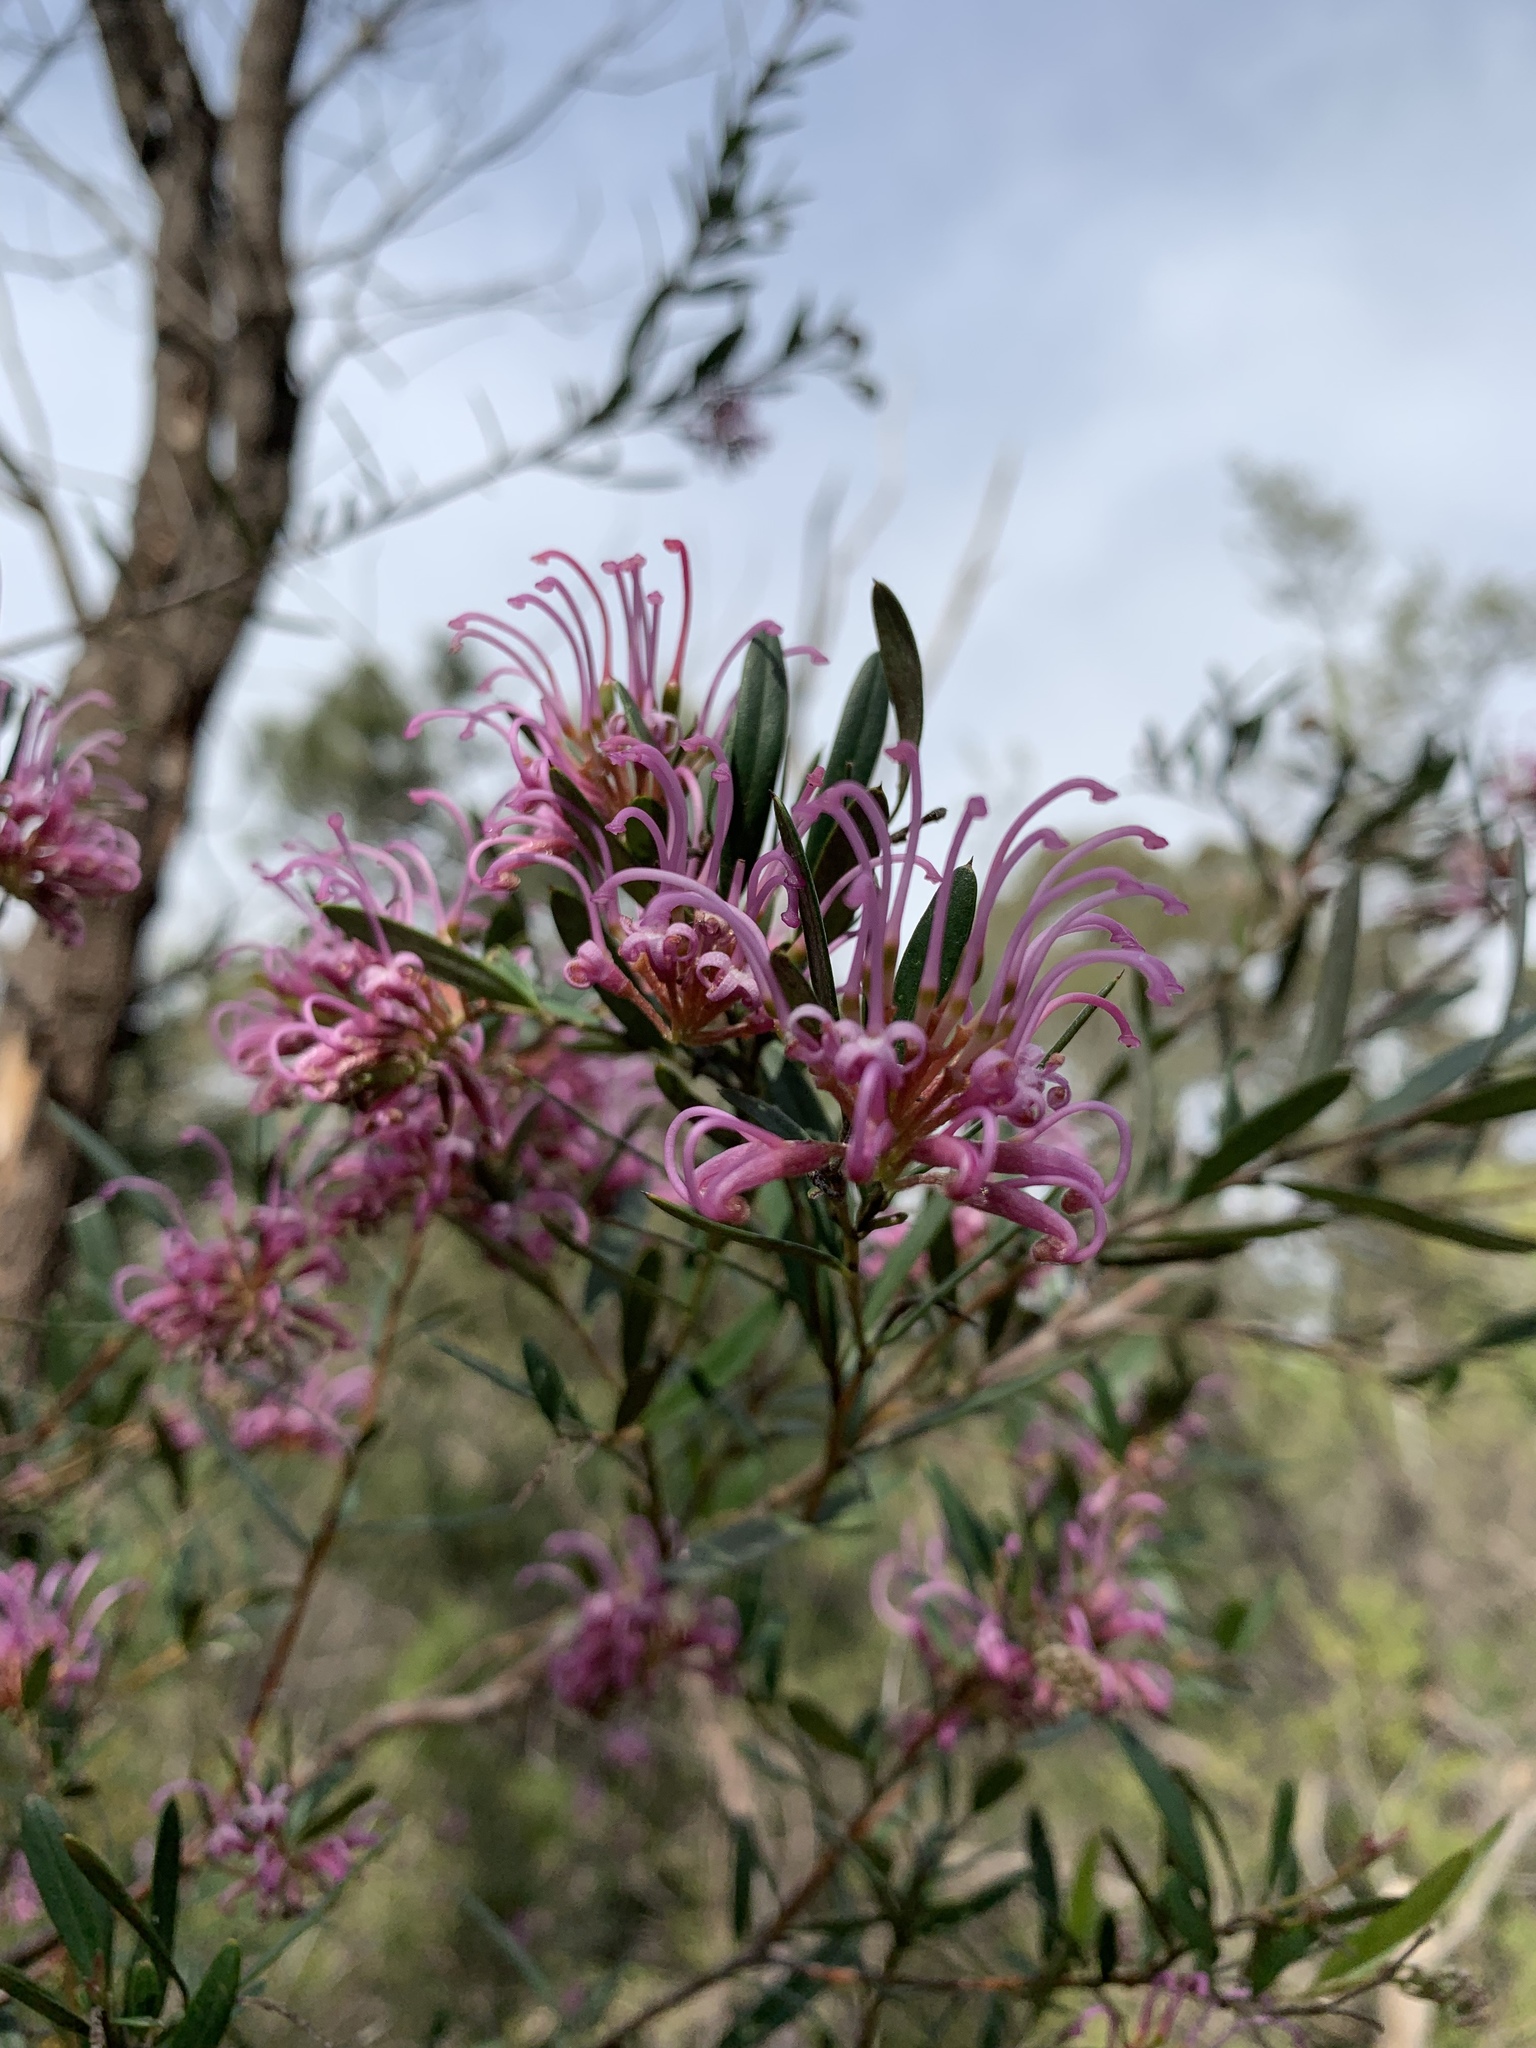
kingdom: Plantae
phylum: Tracheophyta
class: Magnoliopsida
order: Proteales
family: Proteaceae
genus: Grevillea
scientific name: Grevillea sericea
